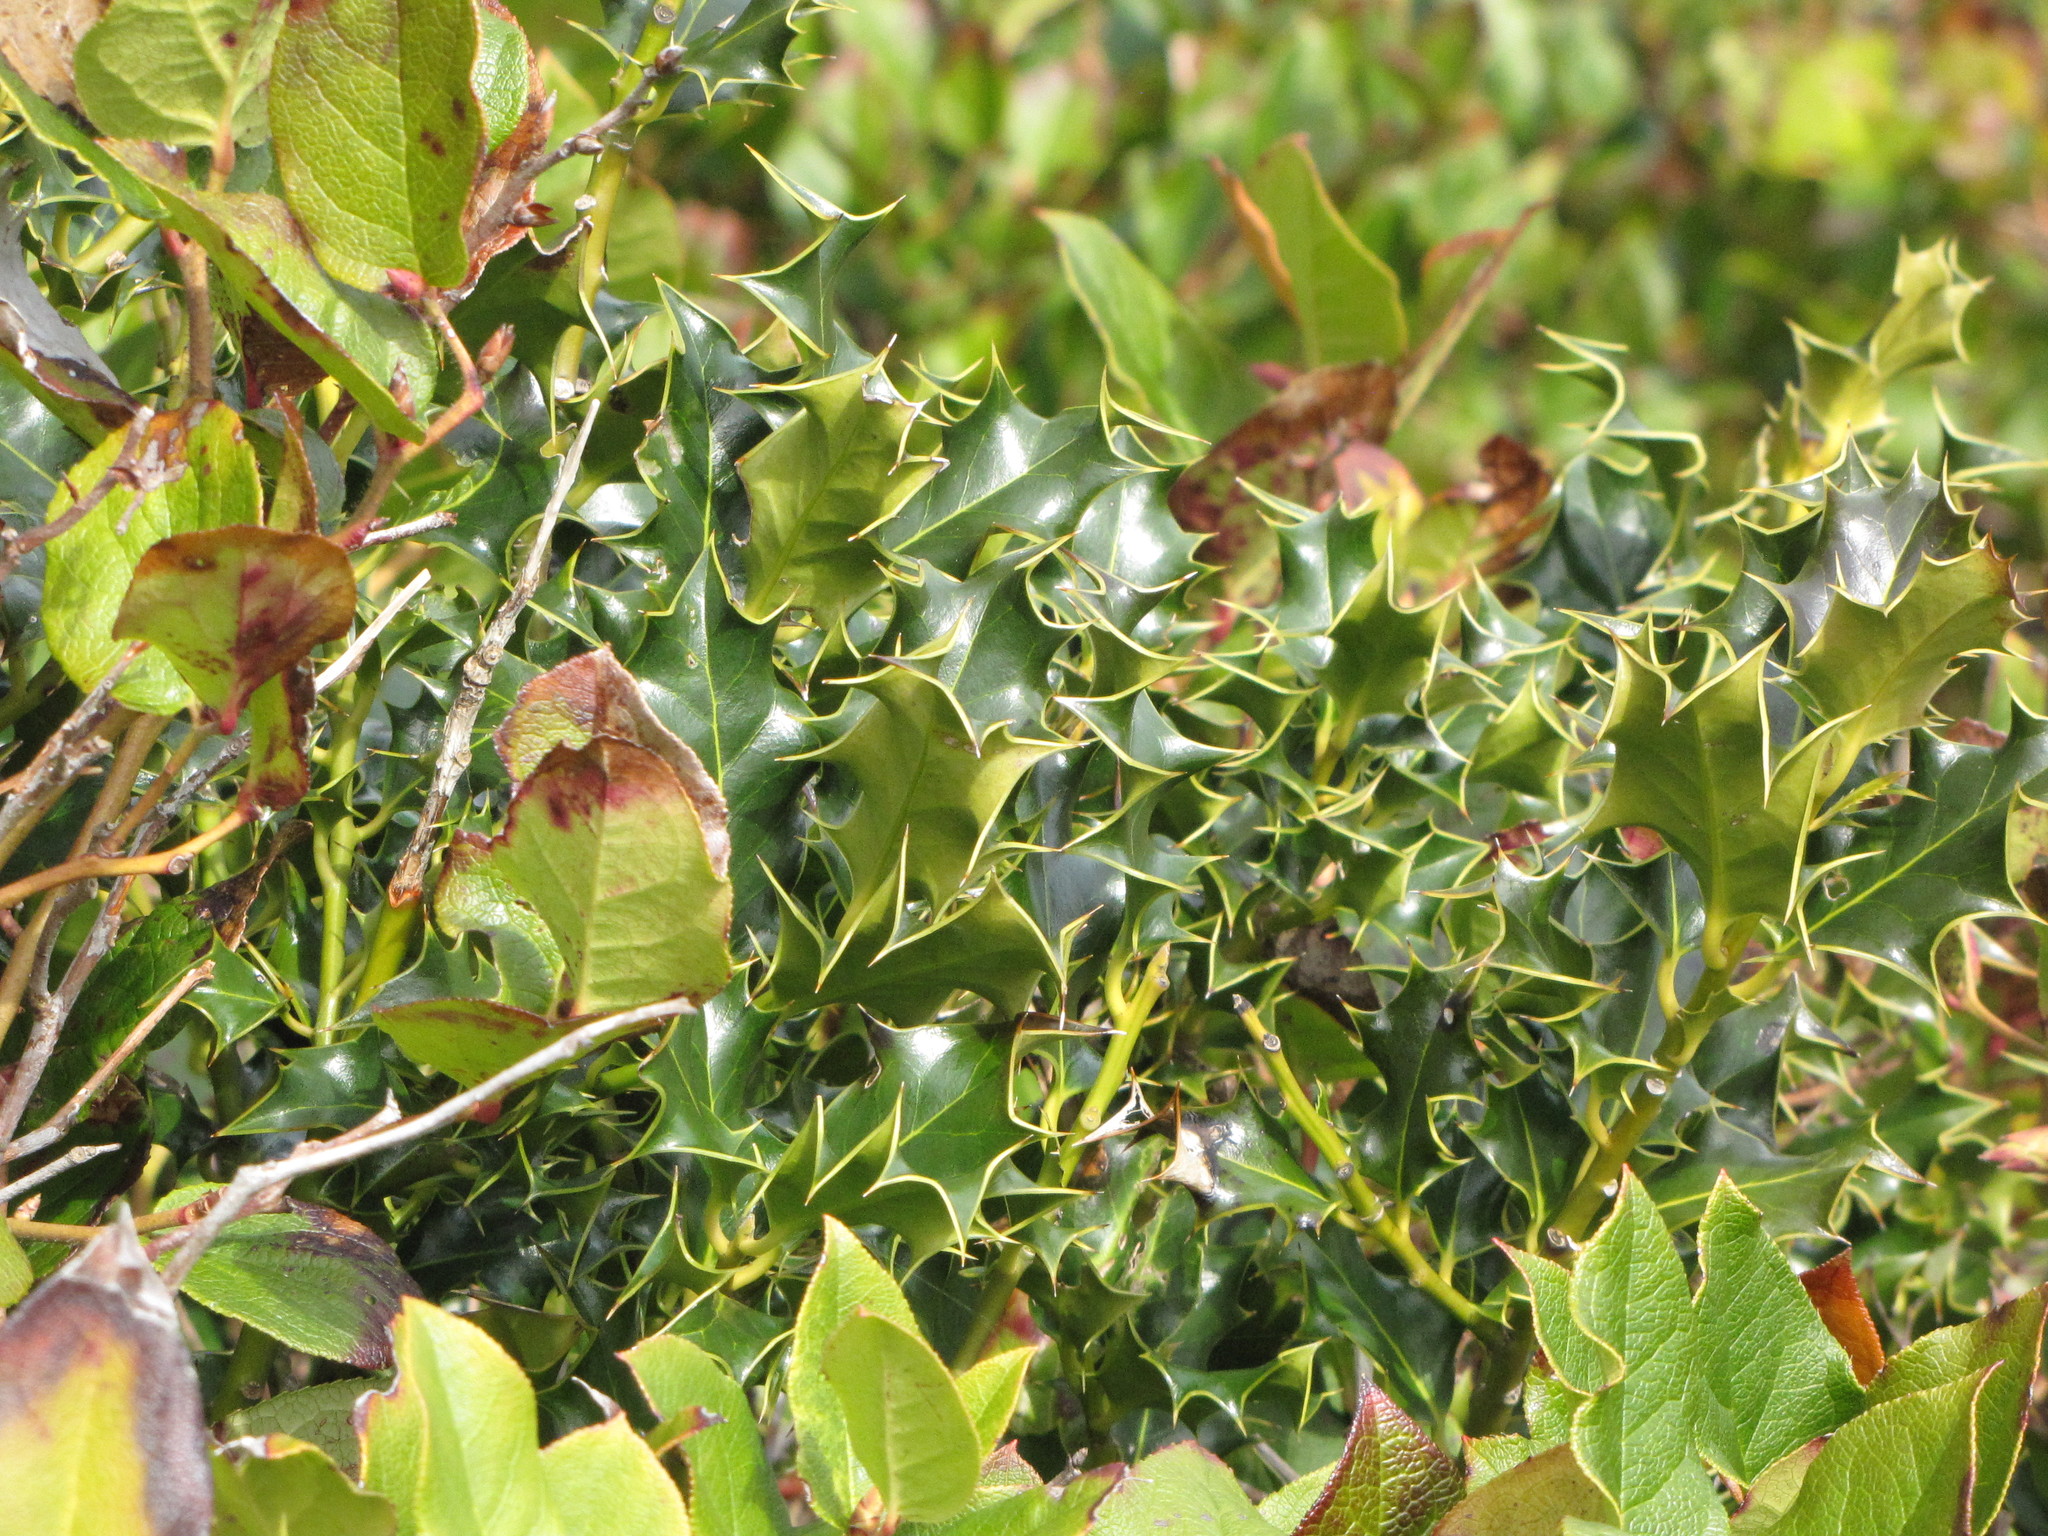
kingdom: Plantae
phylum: Tracheophyta
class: Magnoliopsida
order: Aquifoliales
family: Aquifoliaceae
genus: Ilex
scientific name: Ilex aquifolium
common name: English holly
